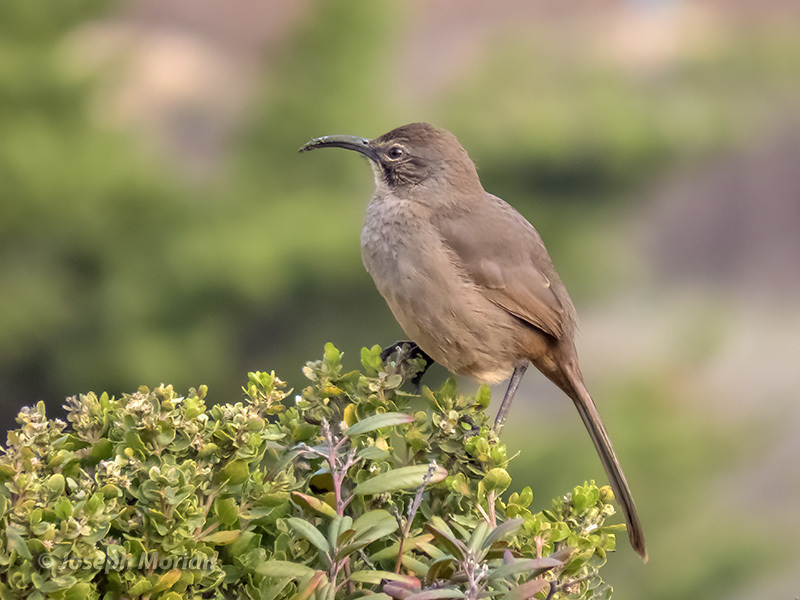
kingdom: Animalia
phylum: Chordata
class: Aves
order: Passeriformes
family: Mimidae
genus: Toxostoma
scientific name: Toxostoma redivivum
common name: California thrasher
